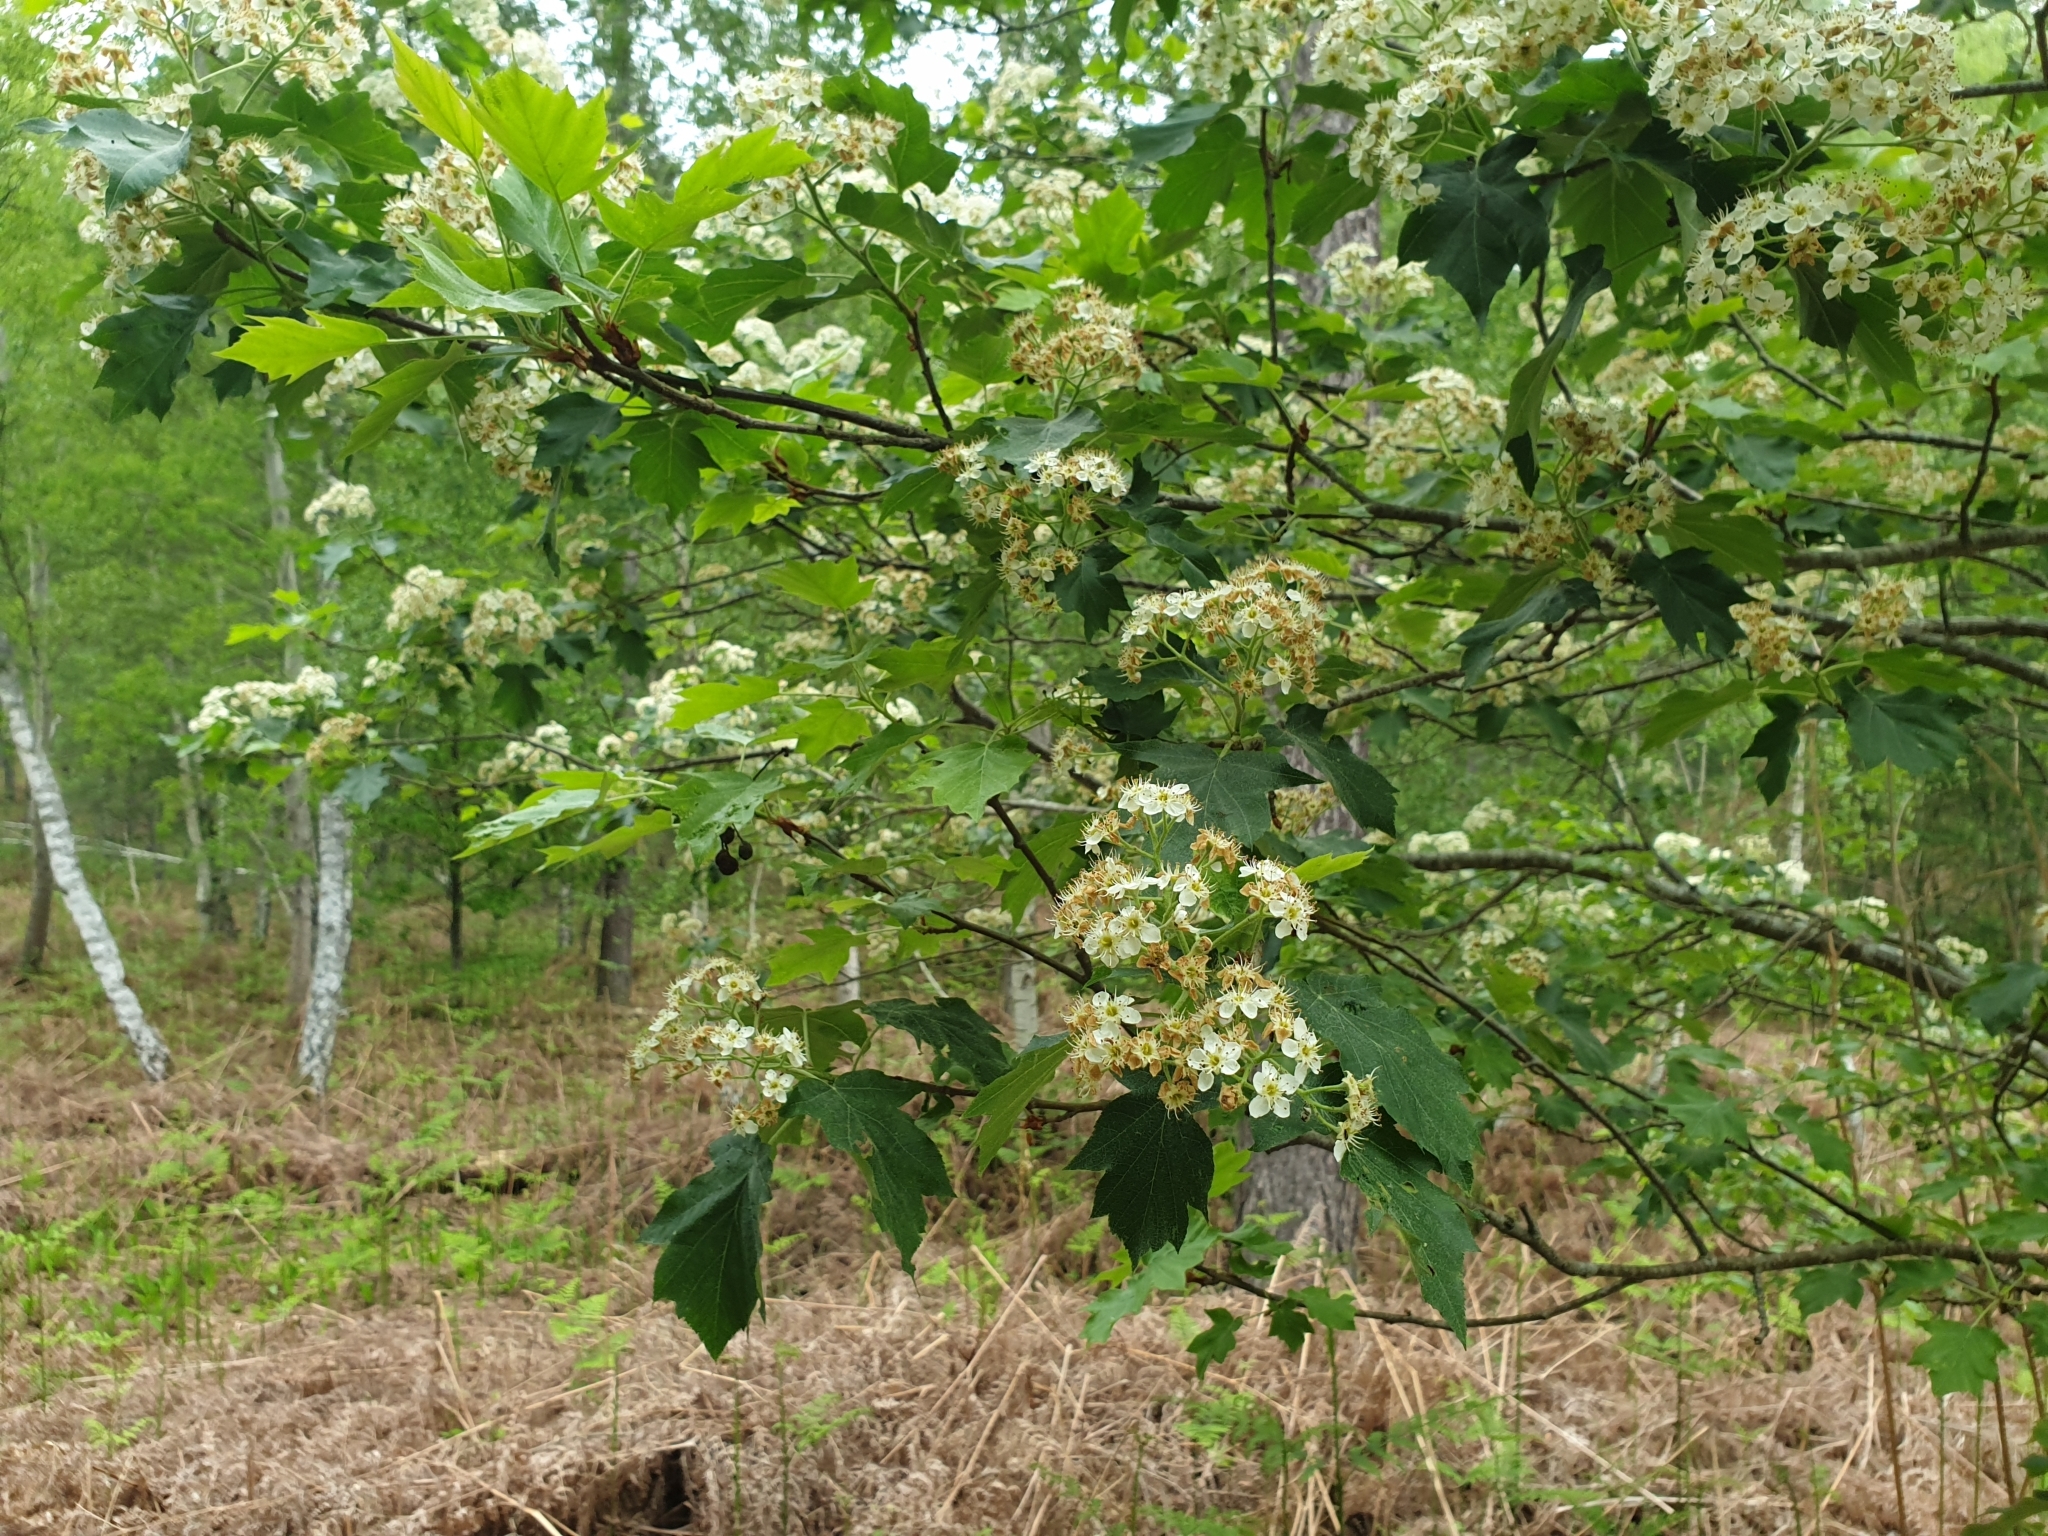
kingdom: Plantae
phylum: Tracheophyta
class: Magnoliopsida
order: Rosales
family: Rosaceae
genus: Torminalis
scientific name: Torminalis glaberrima
